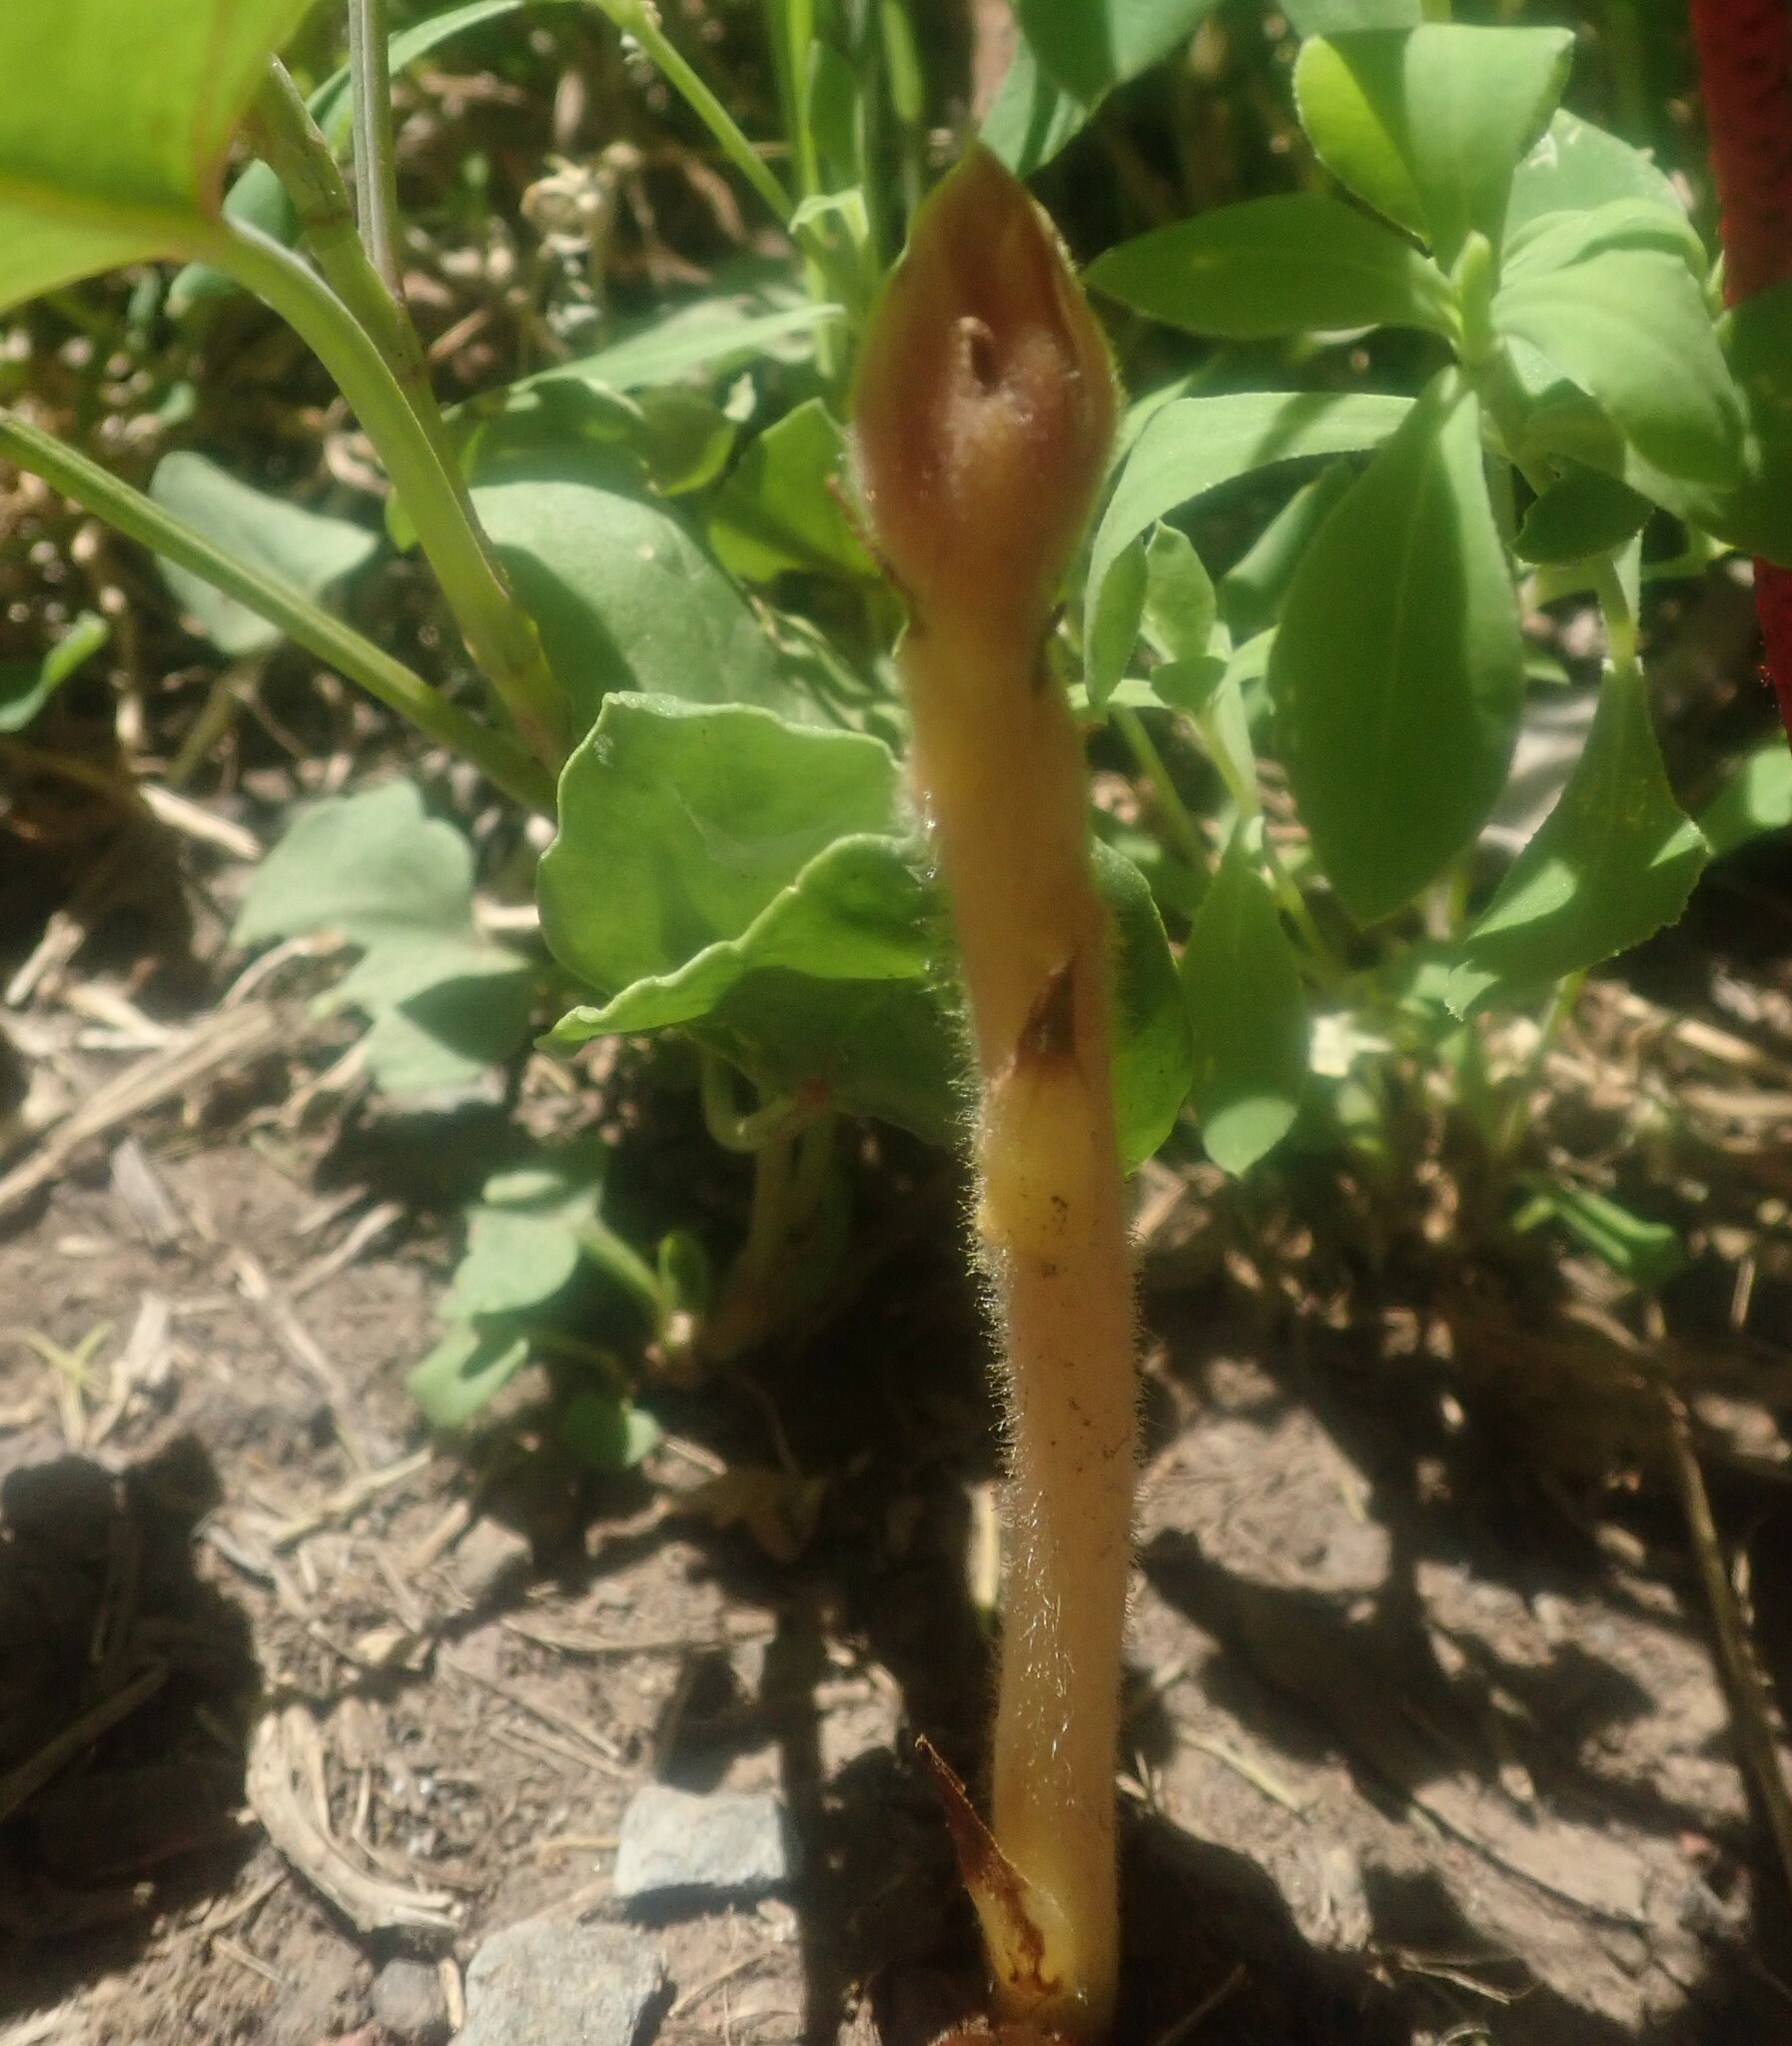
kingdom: Plantae
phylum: Tracheophyta
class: Magnoliopsida
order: Lamiales
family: Orobanchaceae
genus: Orobanche
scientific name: Orobanche minor
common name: Common broomrape
